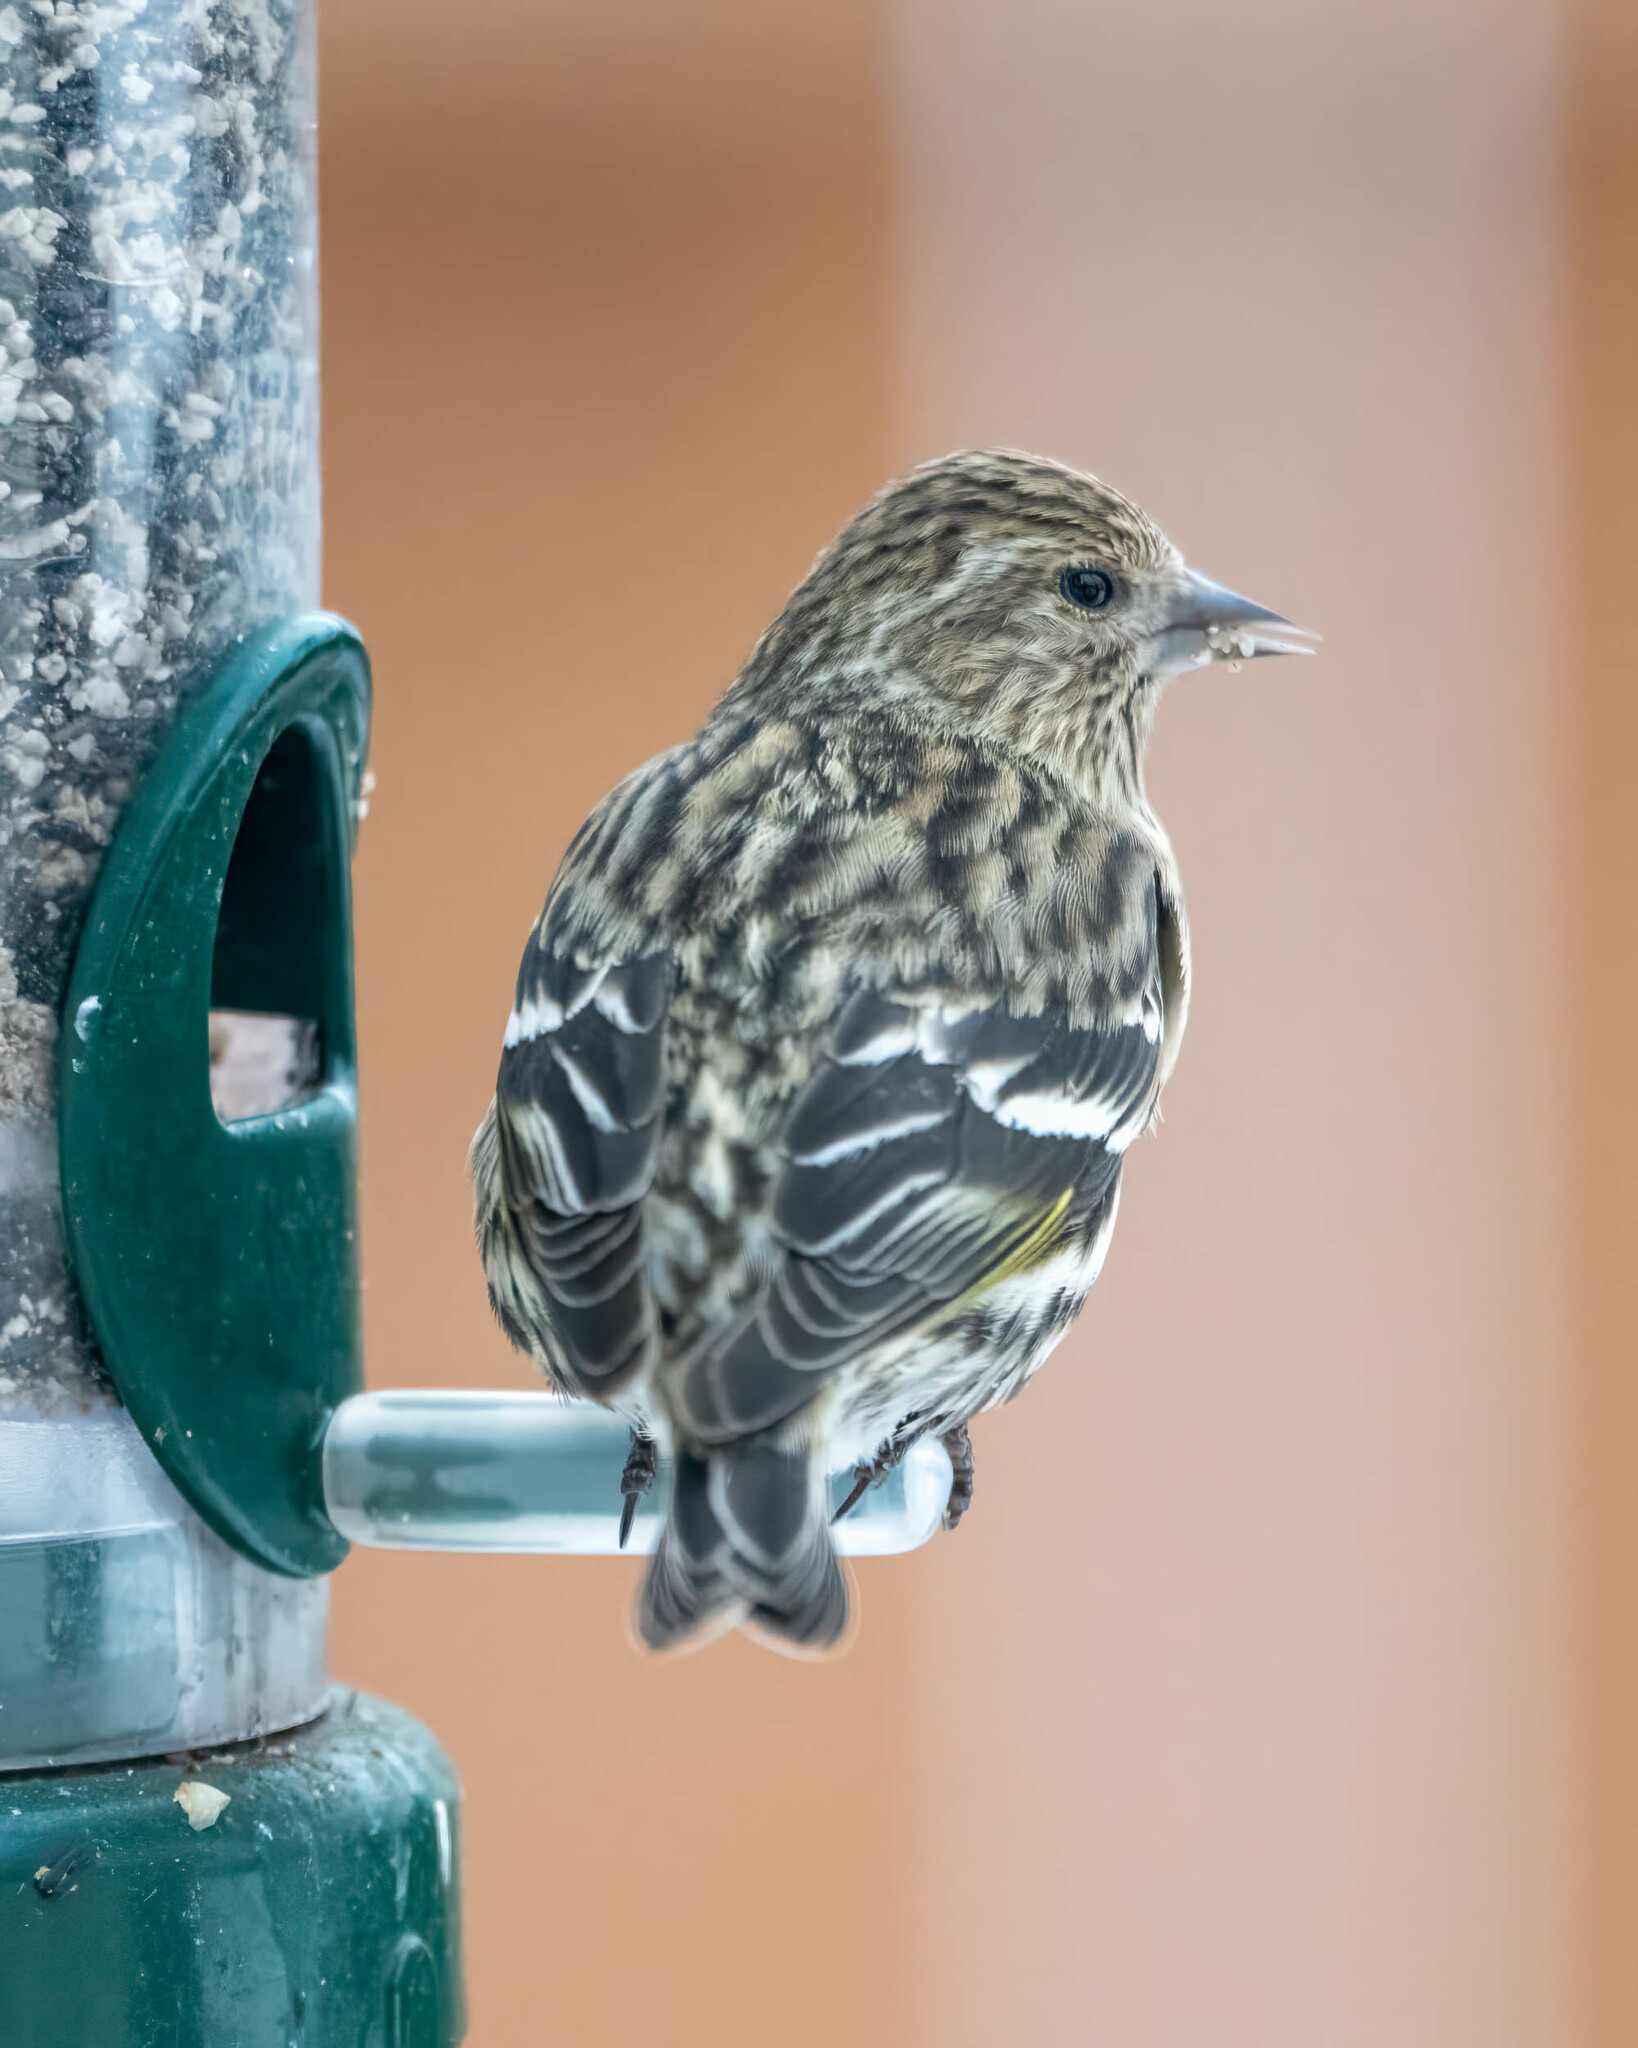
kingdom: Animalia
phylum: Chordata
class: Aves
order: Passeriformes
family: Fringillidae
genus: Spinus
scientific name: Spinus pinus
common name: Pine siskin
